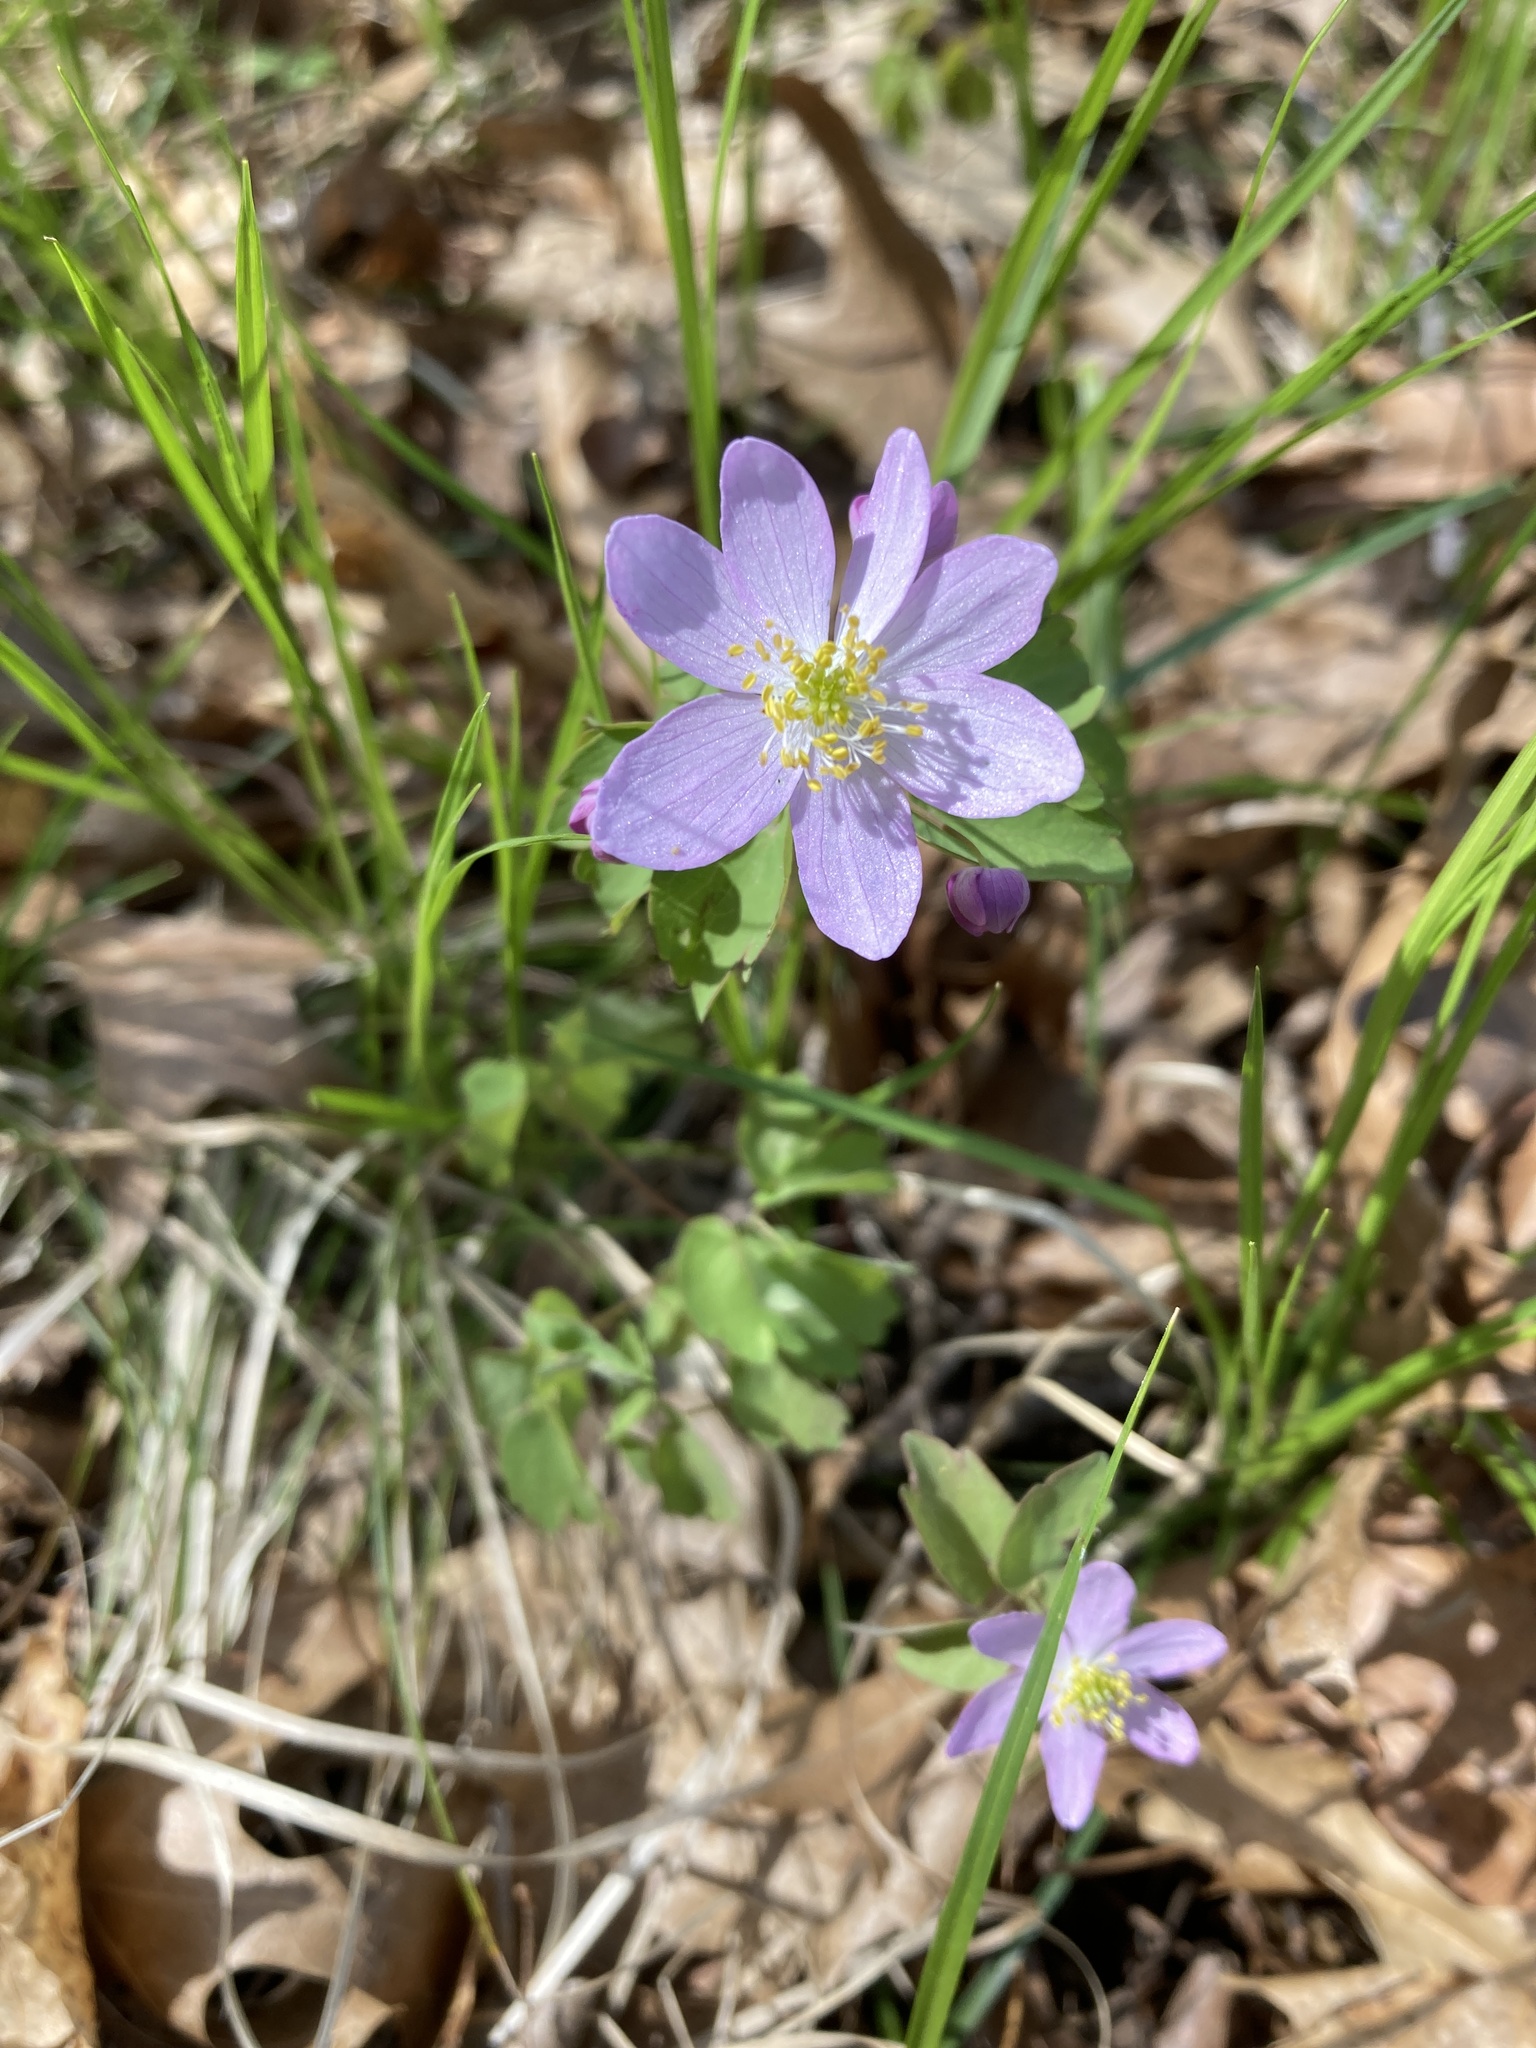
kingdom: Plantae
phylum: Tracheophyta
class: Magnoliopsida
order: Ranunculales
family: Ranunculaceae
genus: Thalictrum
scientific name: Thalictrum thalictroides
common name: Rue-anemone
